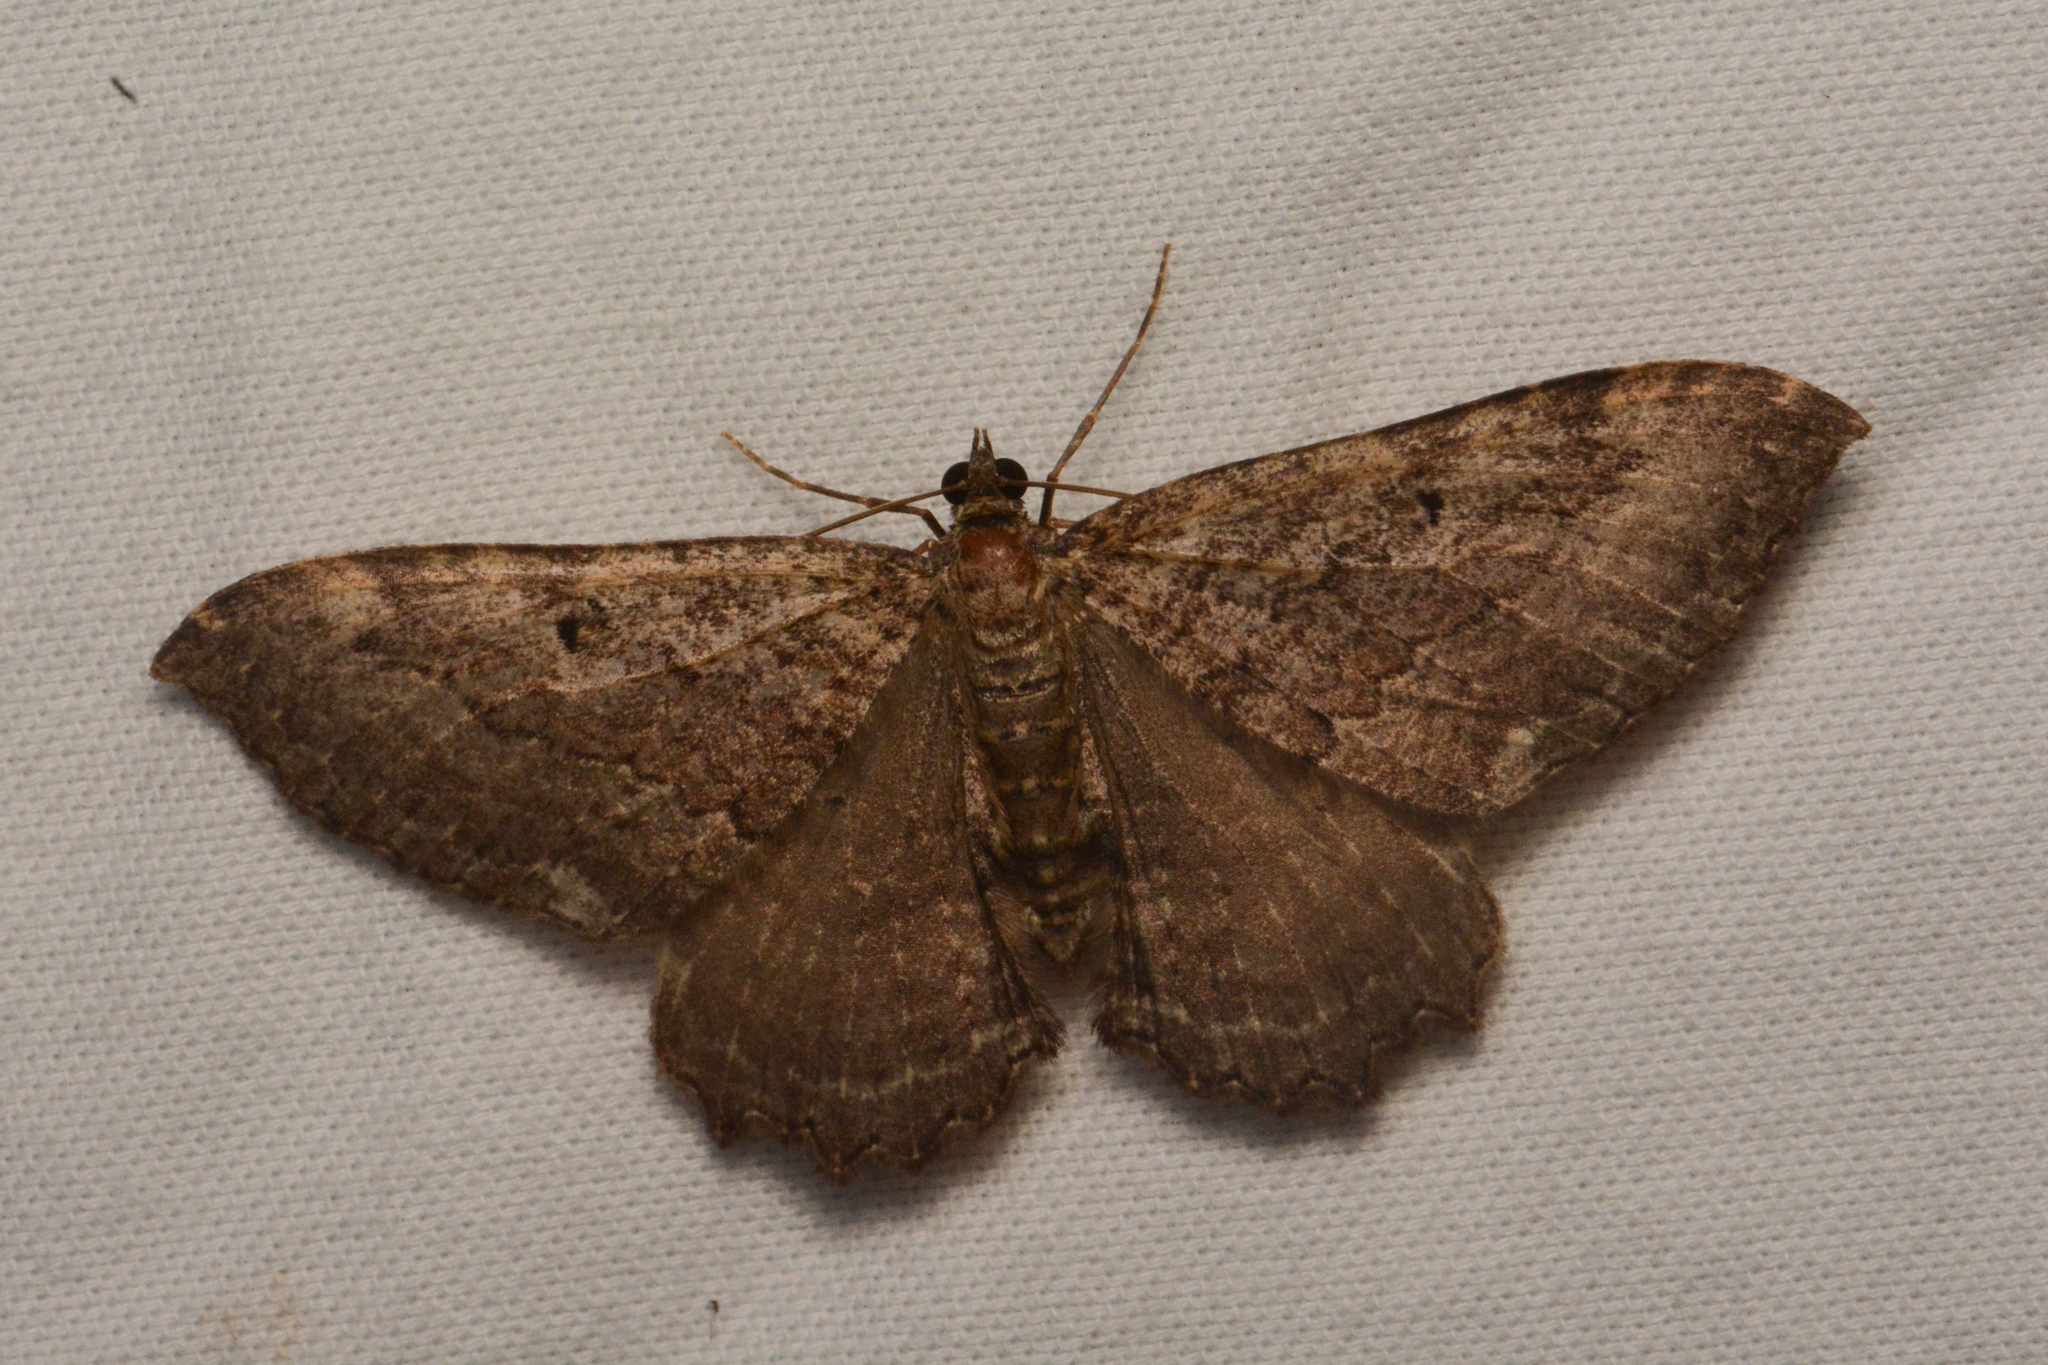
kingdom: Animalia
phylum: Arthropoda
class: Insecta
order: Lepidoptera
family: Geometridae
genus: Rheumaptera
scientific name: Rheumaptera
